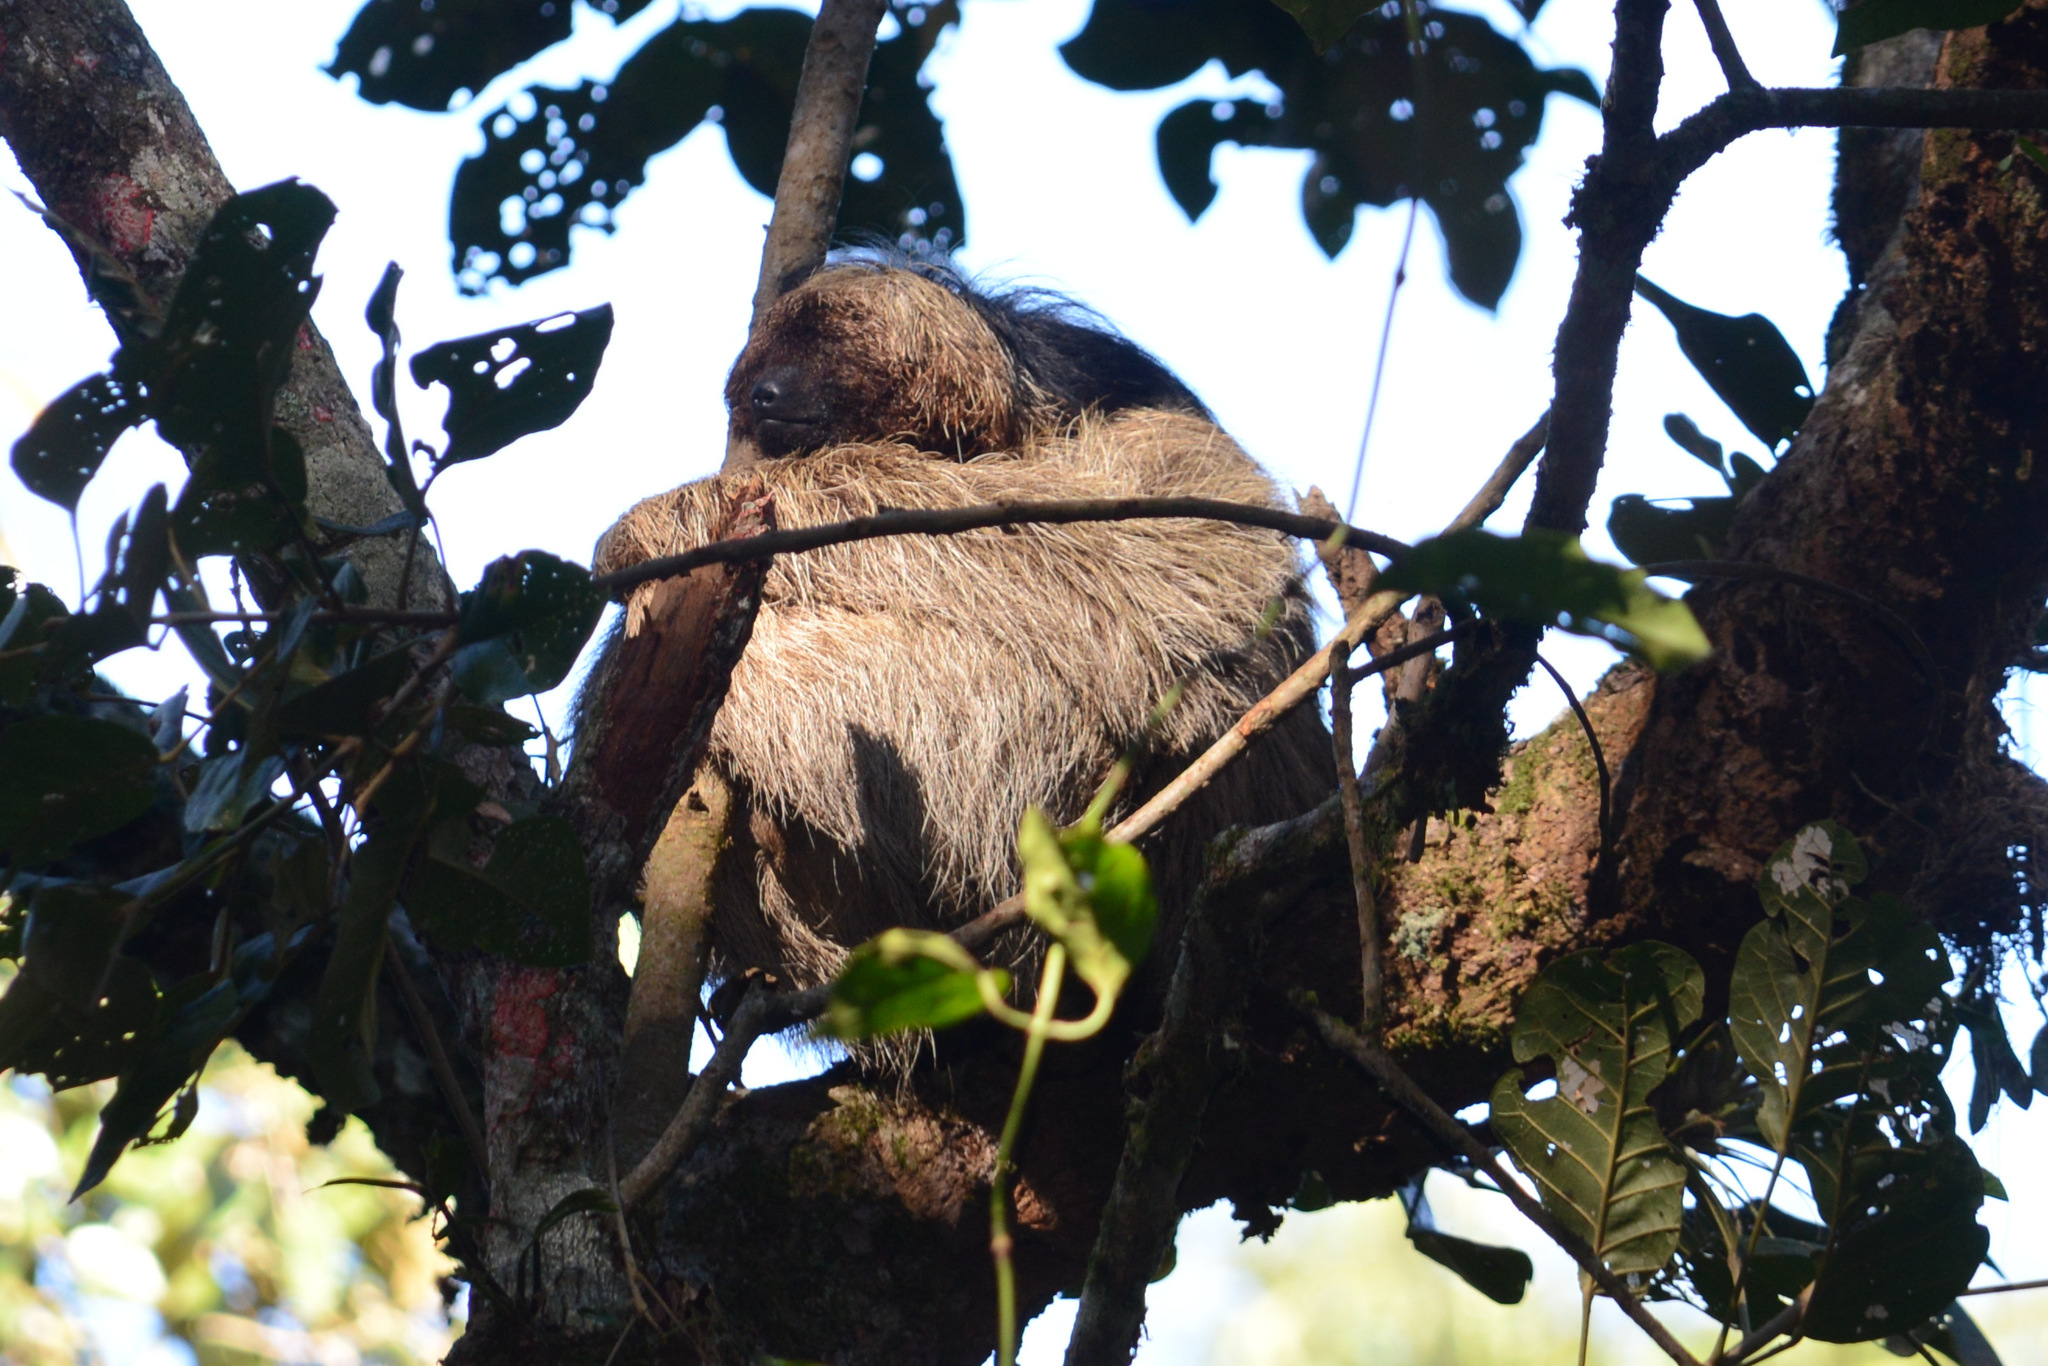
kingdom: Animalia
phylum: Chordata
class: Mammalia
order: Pilosa
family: Bradypodidae
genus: Bradypus
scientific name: Bradypus torquatus
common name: Maned sloth
